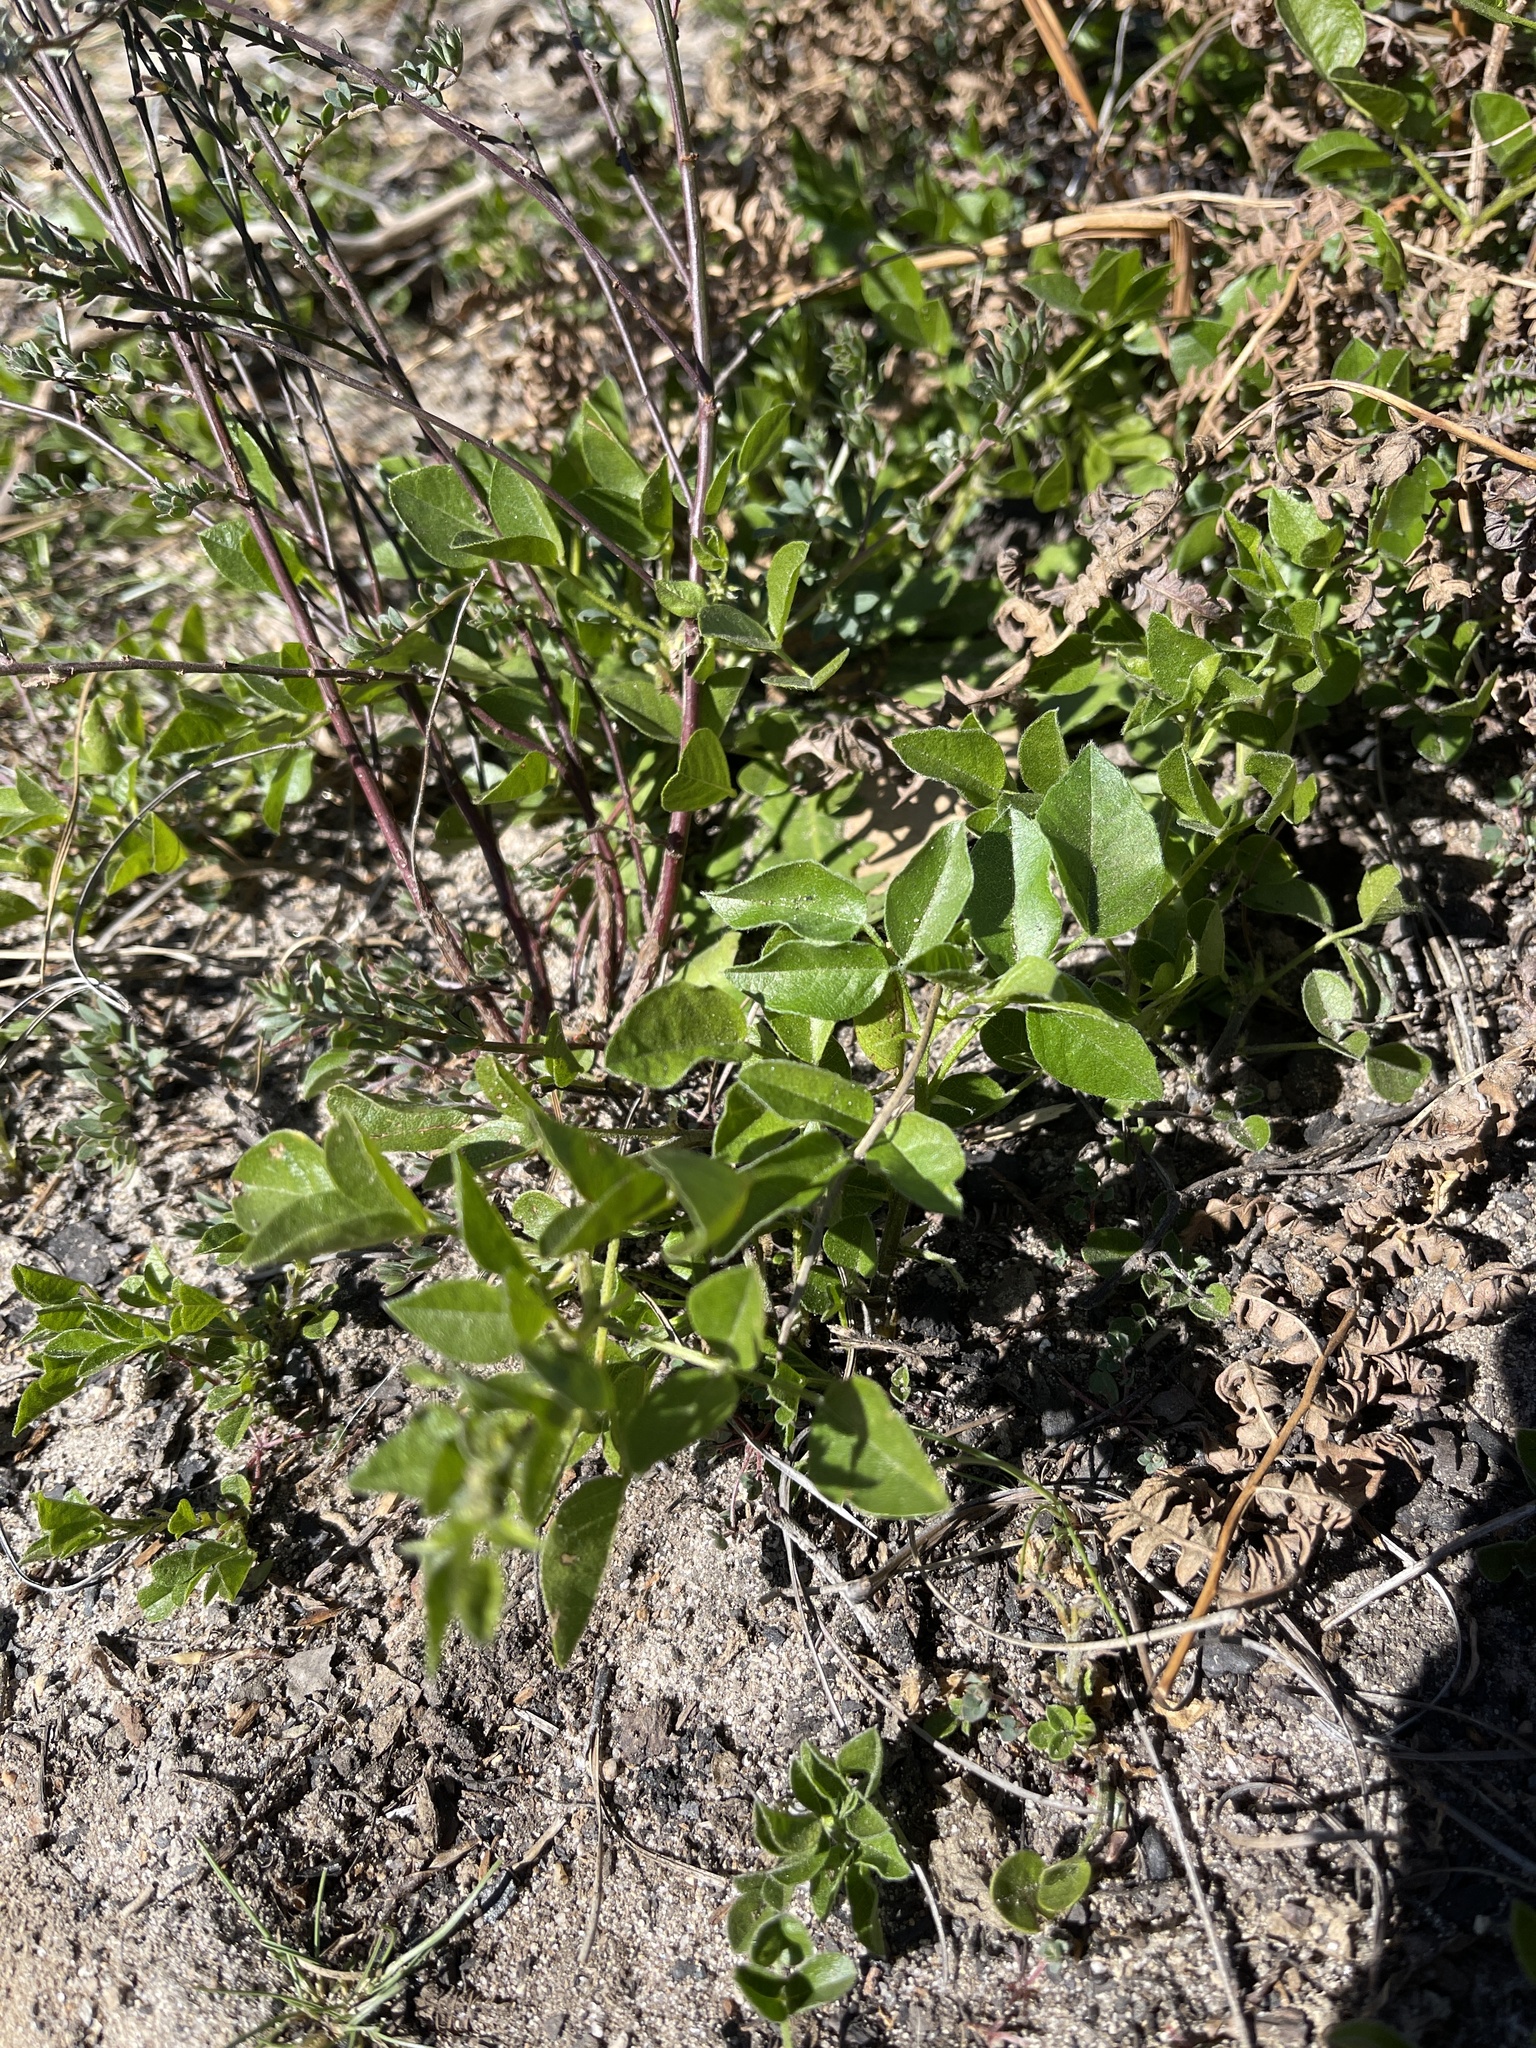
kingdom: Plantae
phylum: Tracheophyta
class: Magnoliopsida
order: Fabales
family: Fabaceae
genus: Rupertia
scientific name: Rupertia physodes
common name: California-tea
